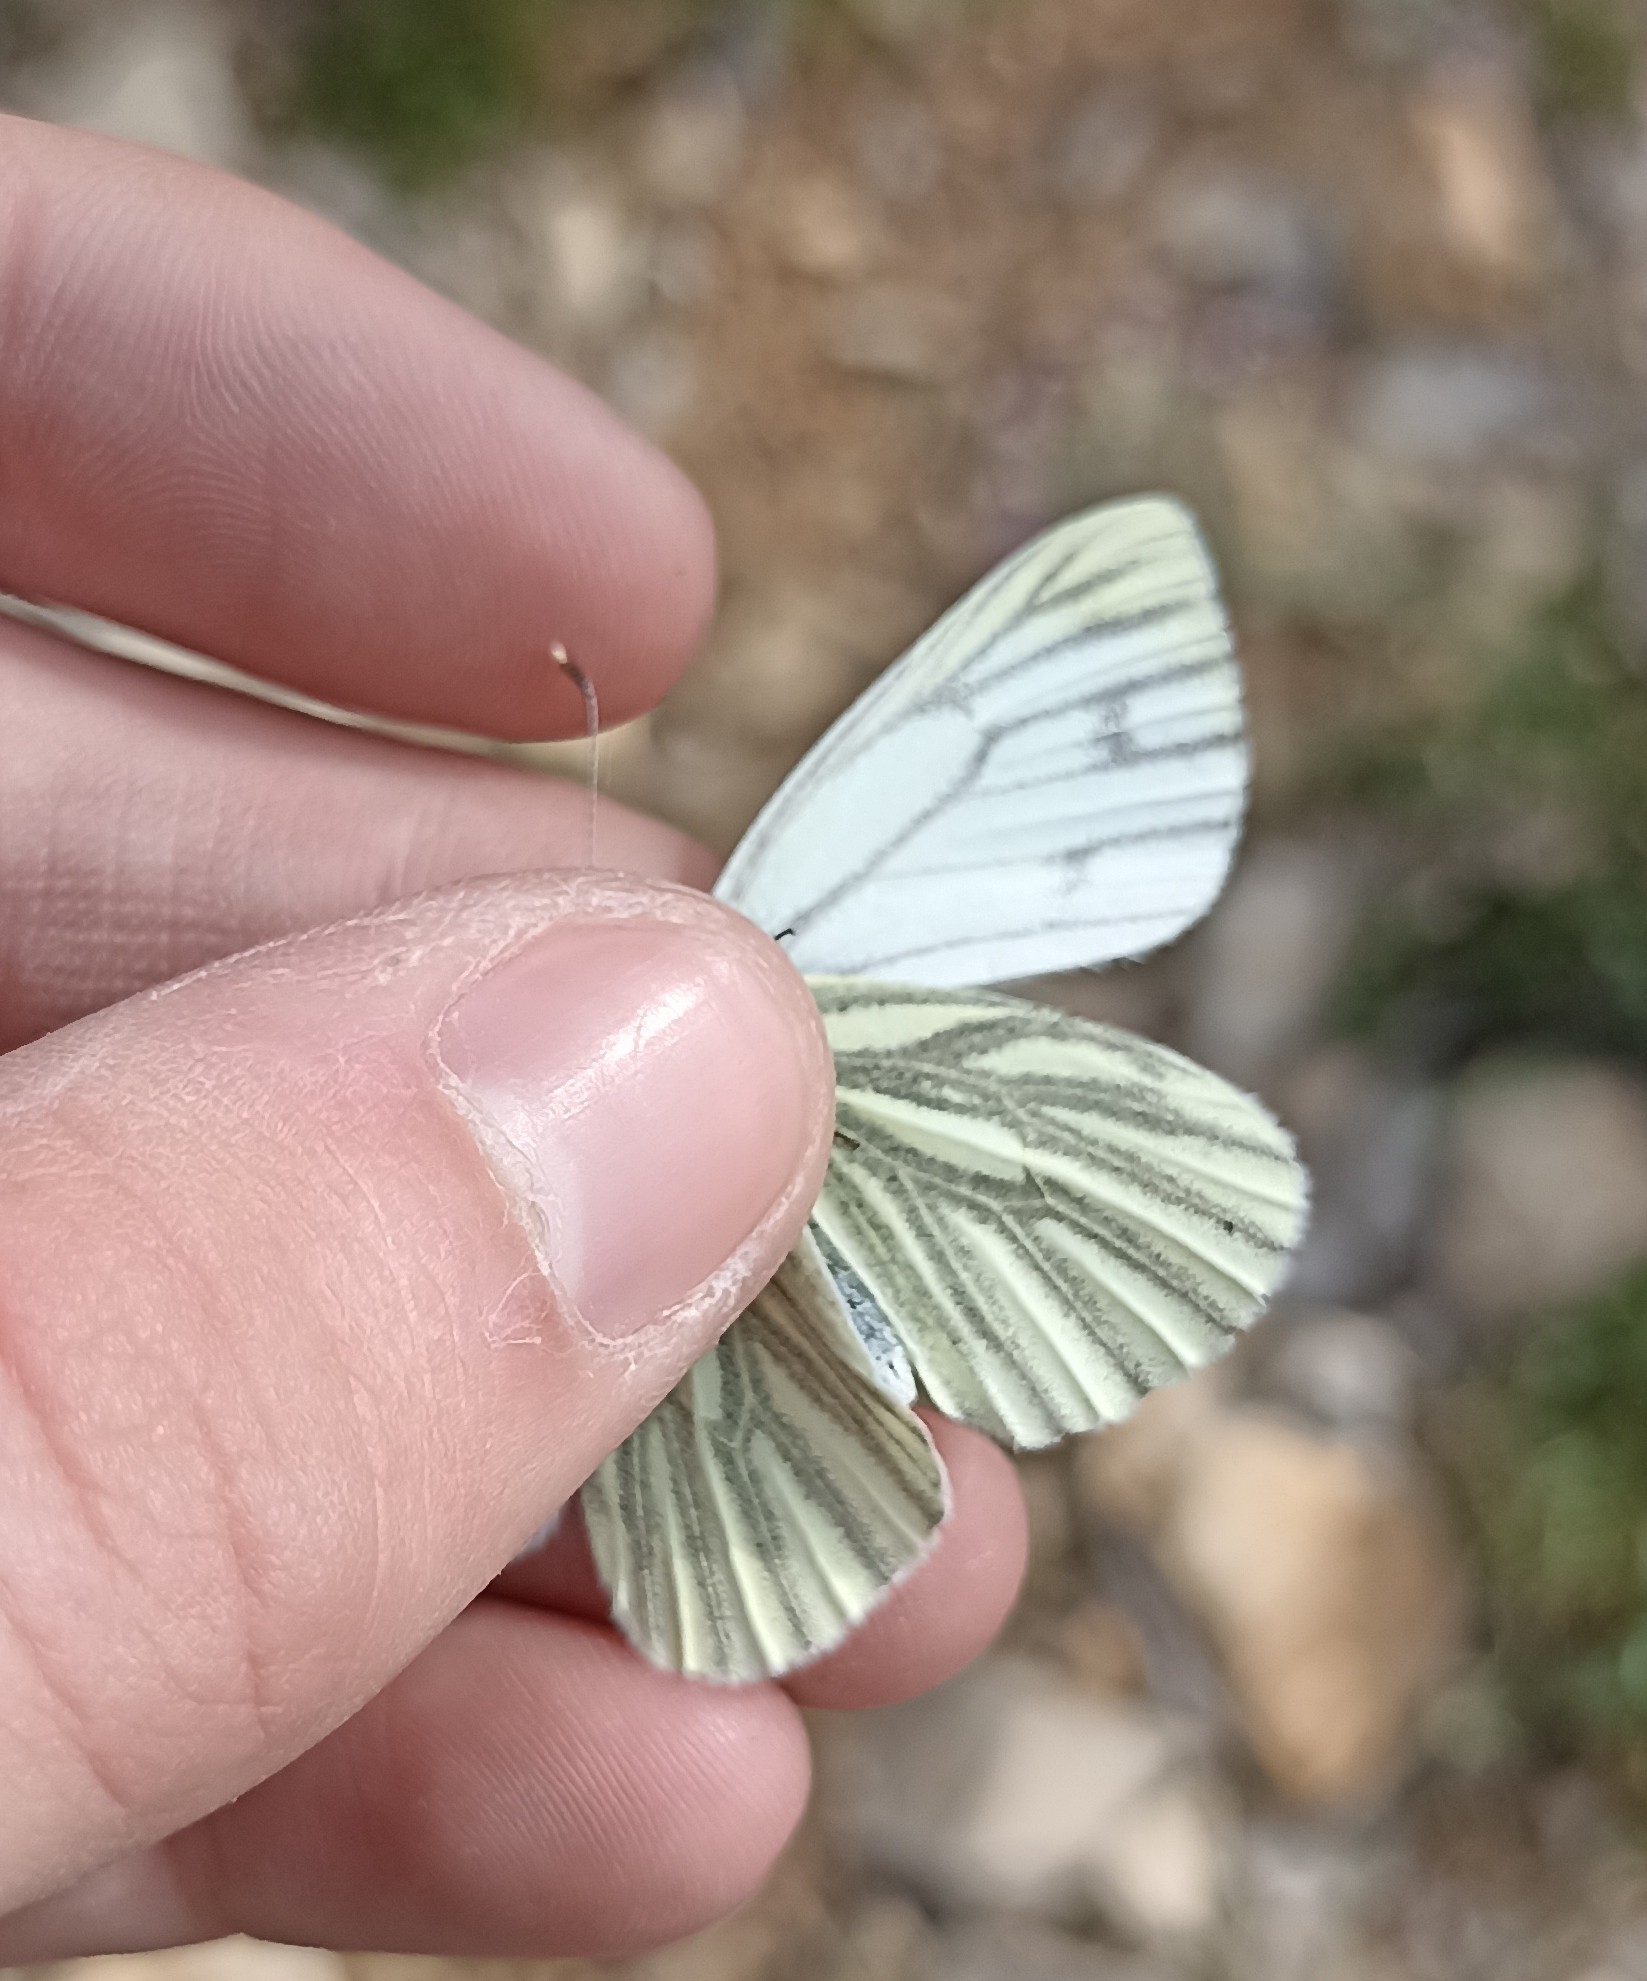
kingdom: Animalia
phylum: Arthropoda
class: Insecta
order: Lepidoptera
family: Pieridae
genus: Pieris
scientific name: Pieris napi
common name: Green-veined white
